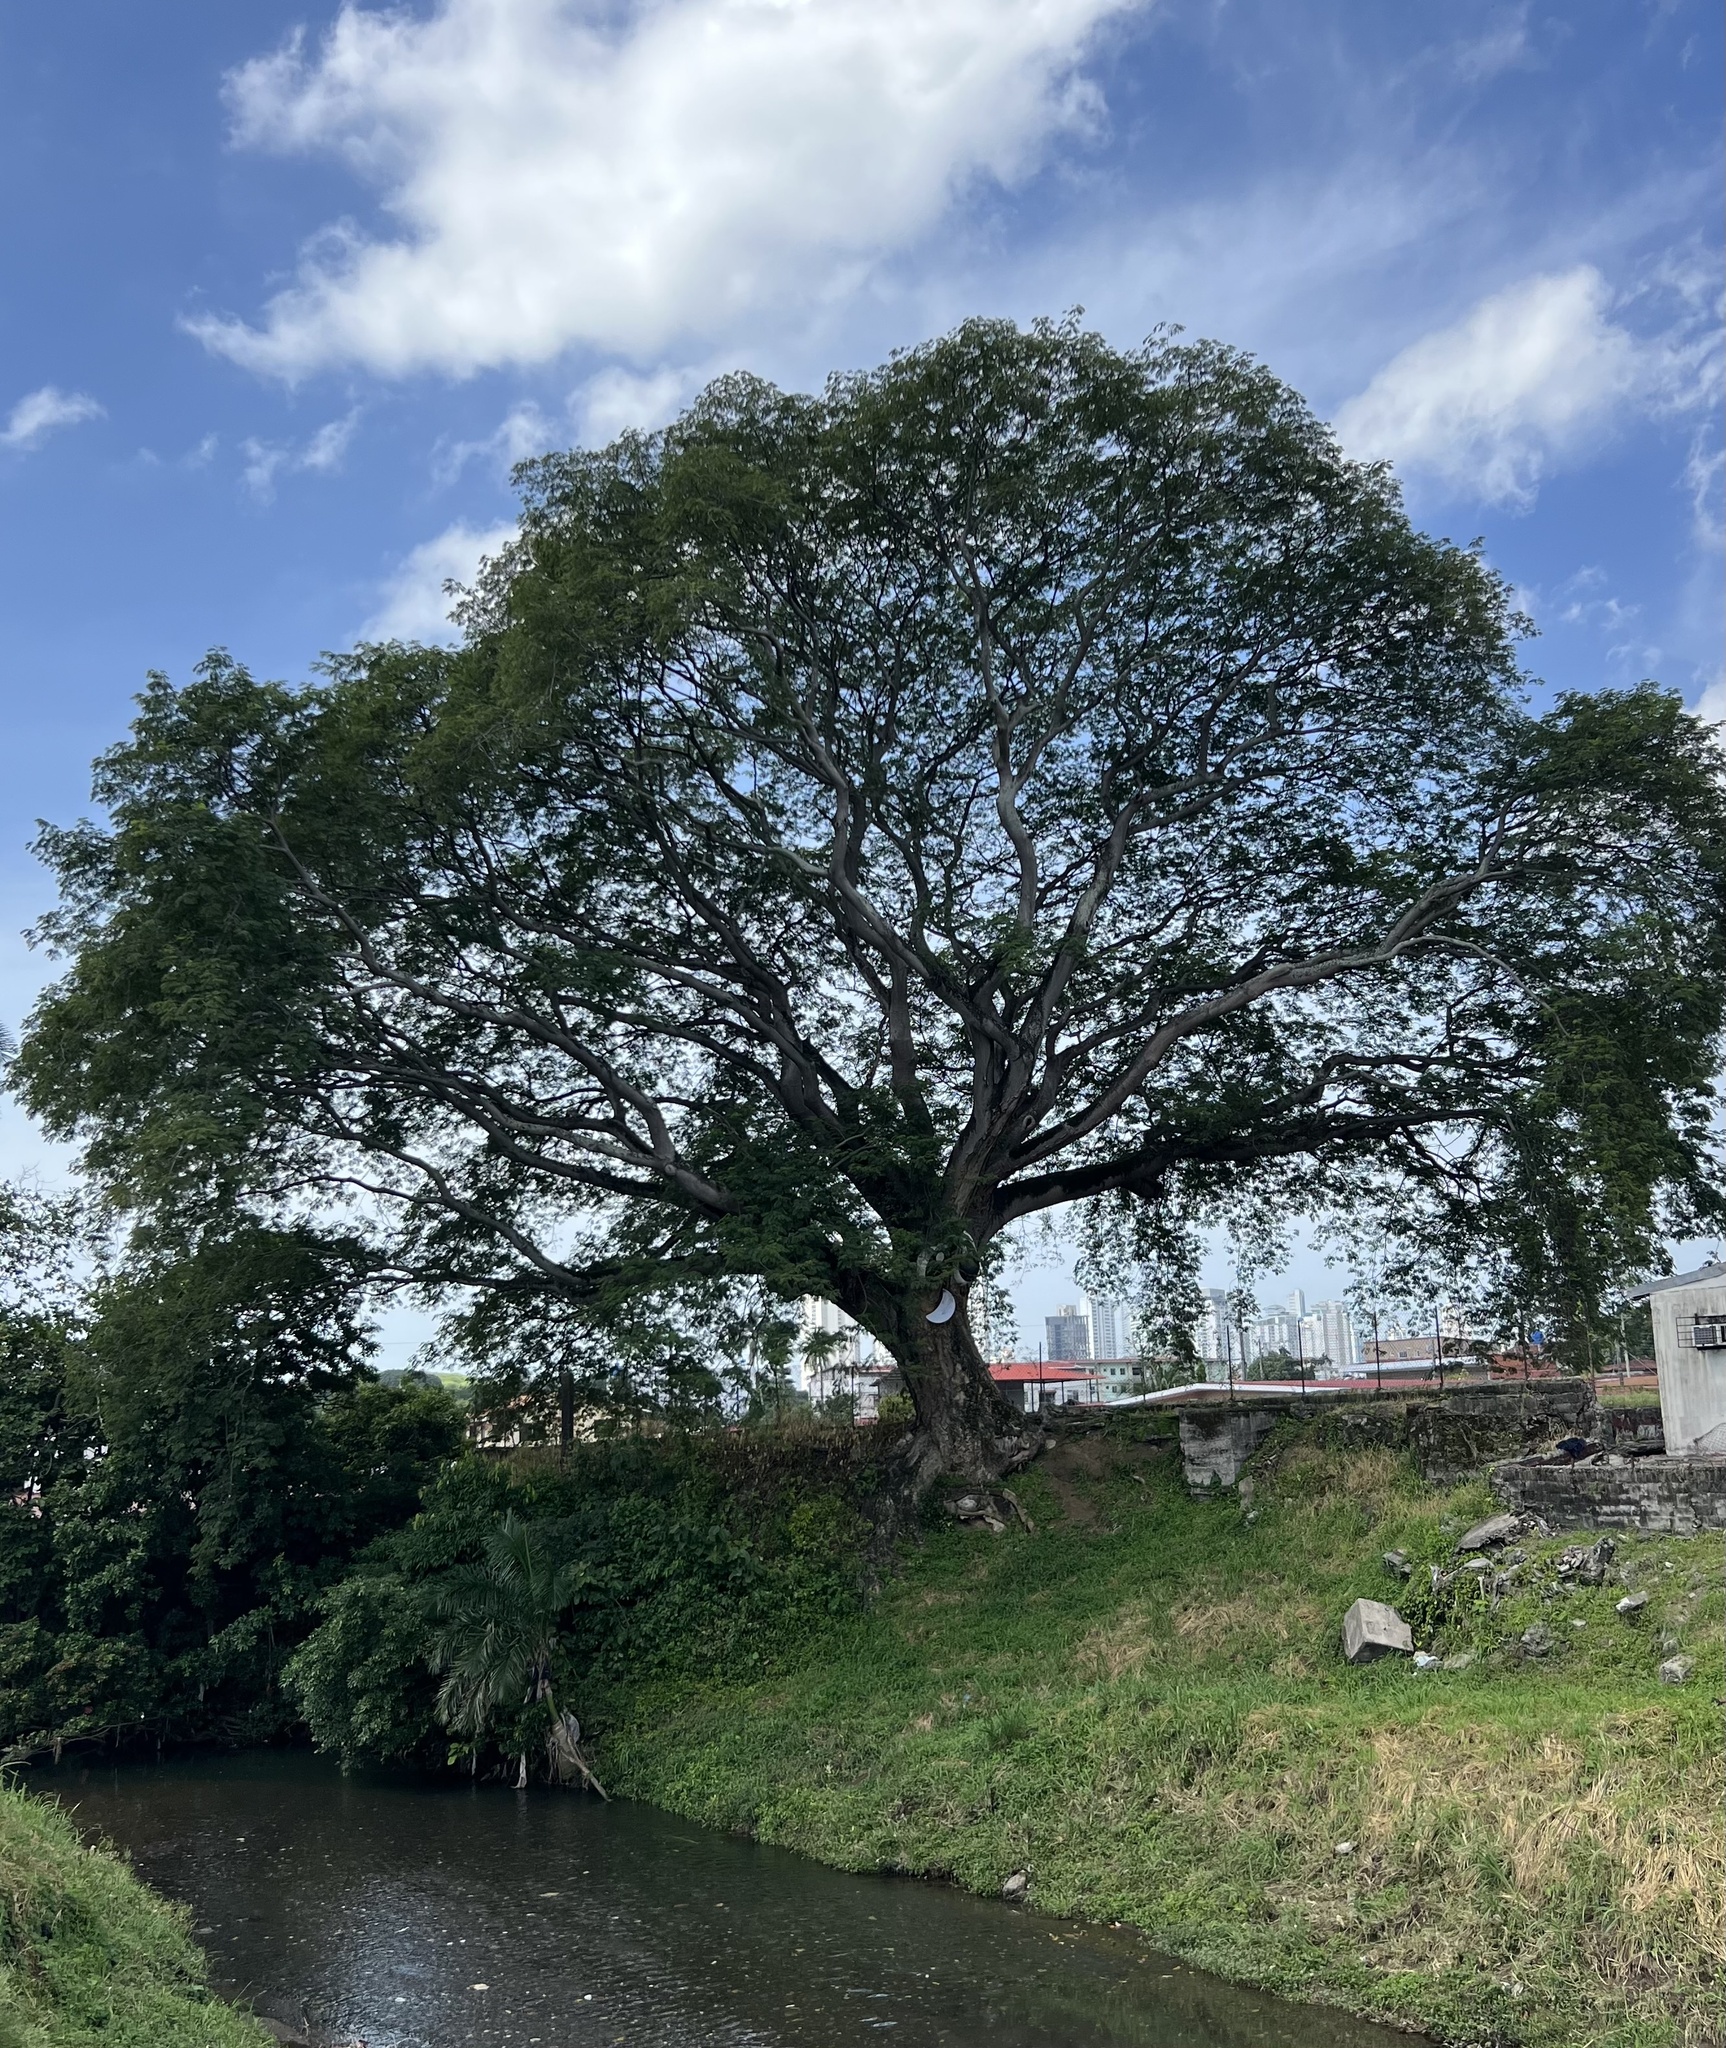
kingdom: Plantae
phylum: Tracheophyta
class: Magnoliopsida
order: Fabales
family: Fabaceae
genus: Enterolobium
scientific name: Enterolobium cyclocarpum
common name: Ear tree
